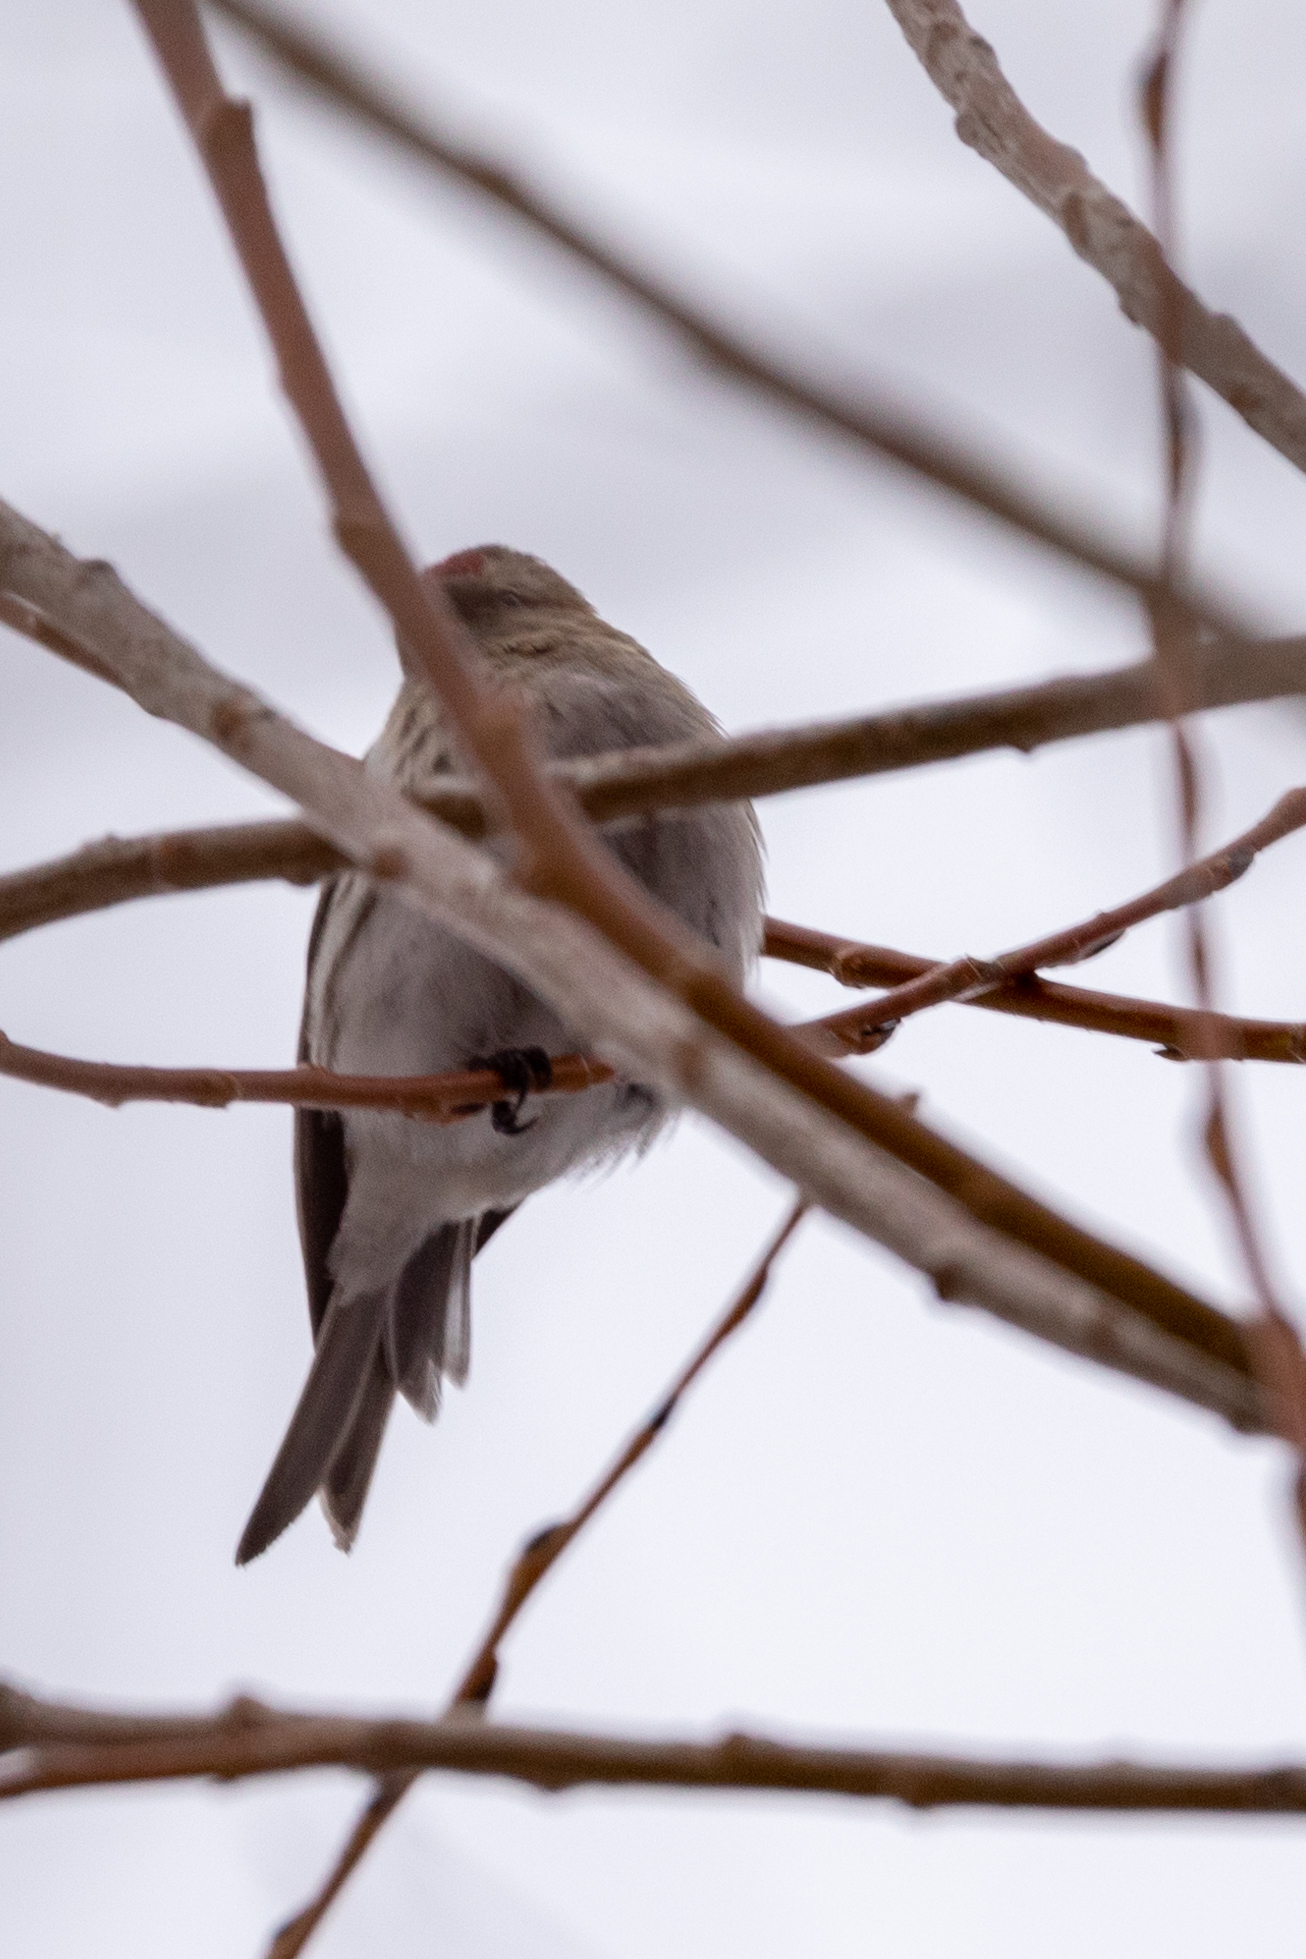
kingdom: Animalia
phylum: Chordata
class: Aves
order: Passeriformes
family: Fringillidae
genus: Acanthis
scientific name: Acanthis hornemanni
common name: Arctic redpoll
